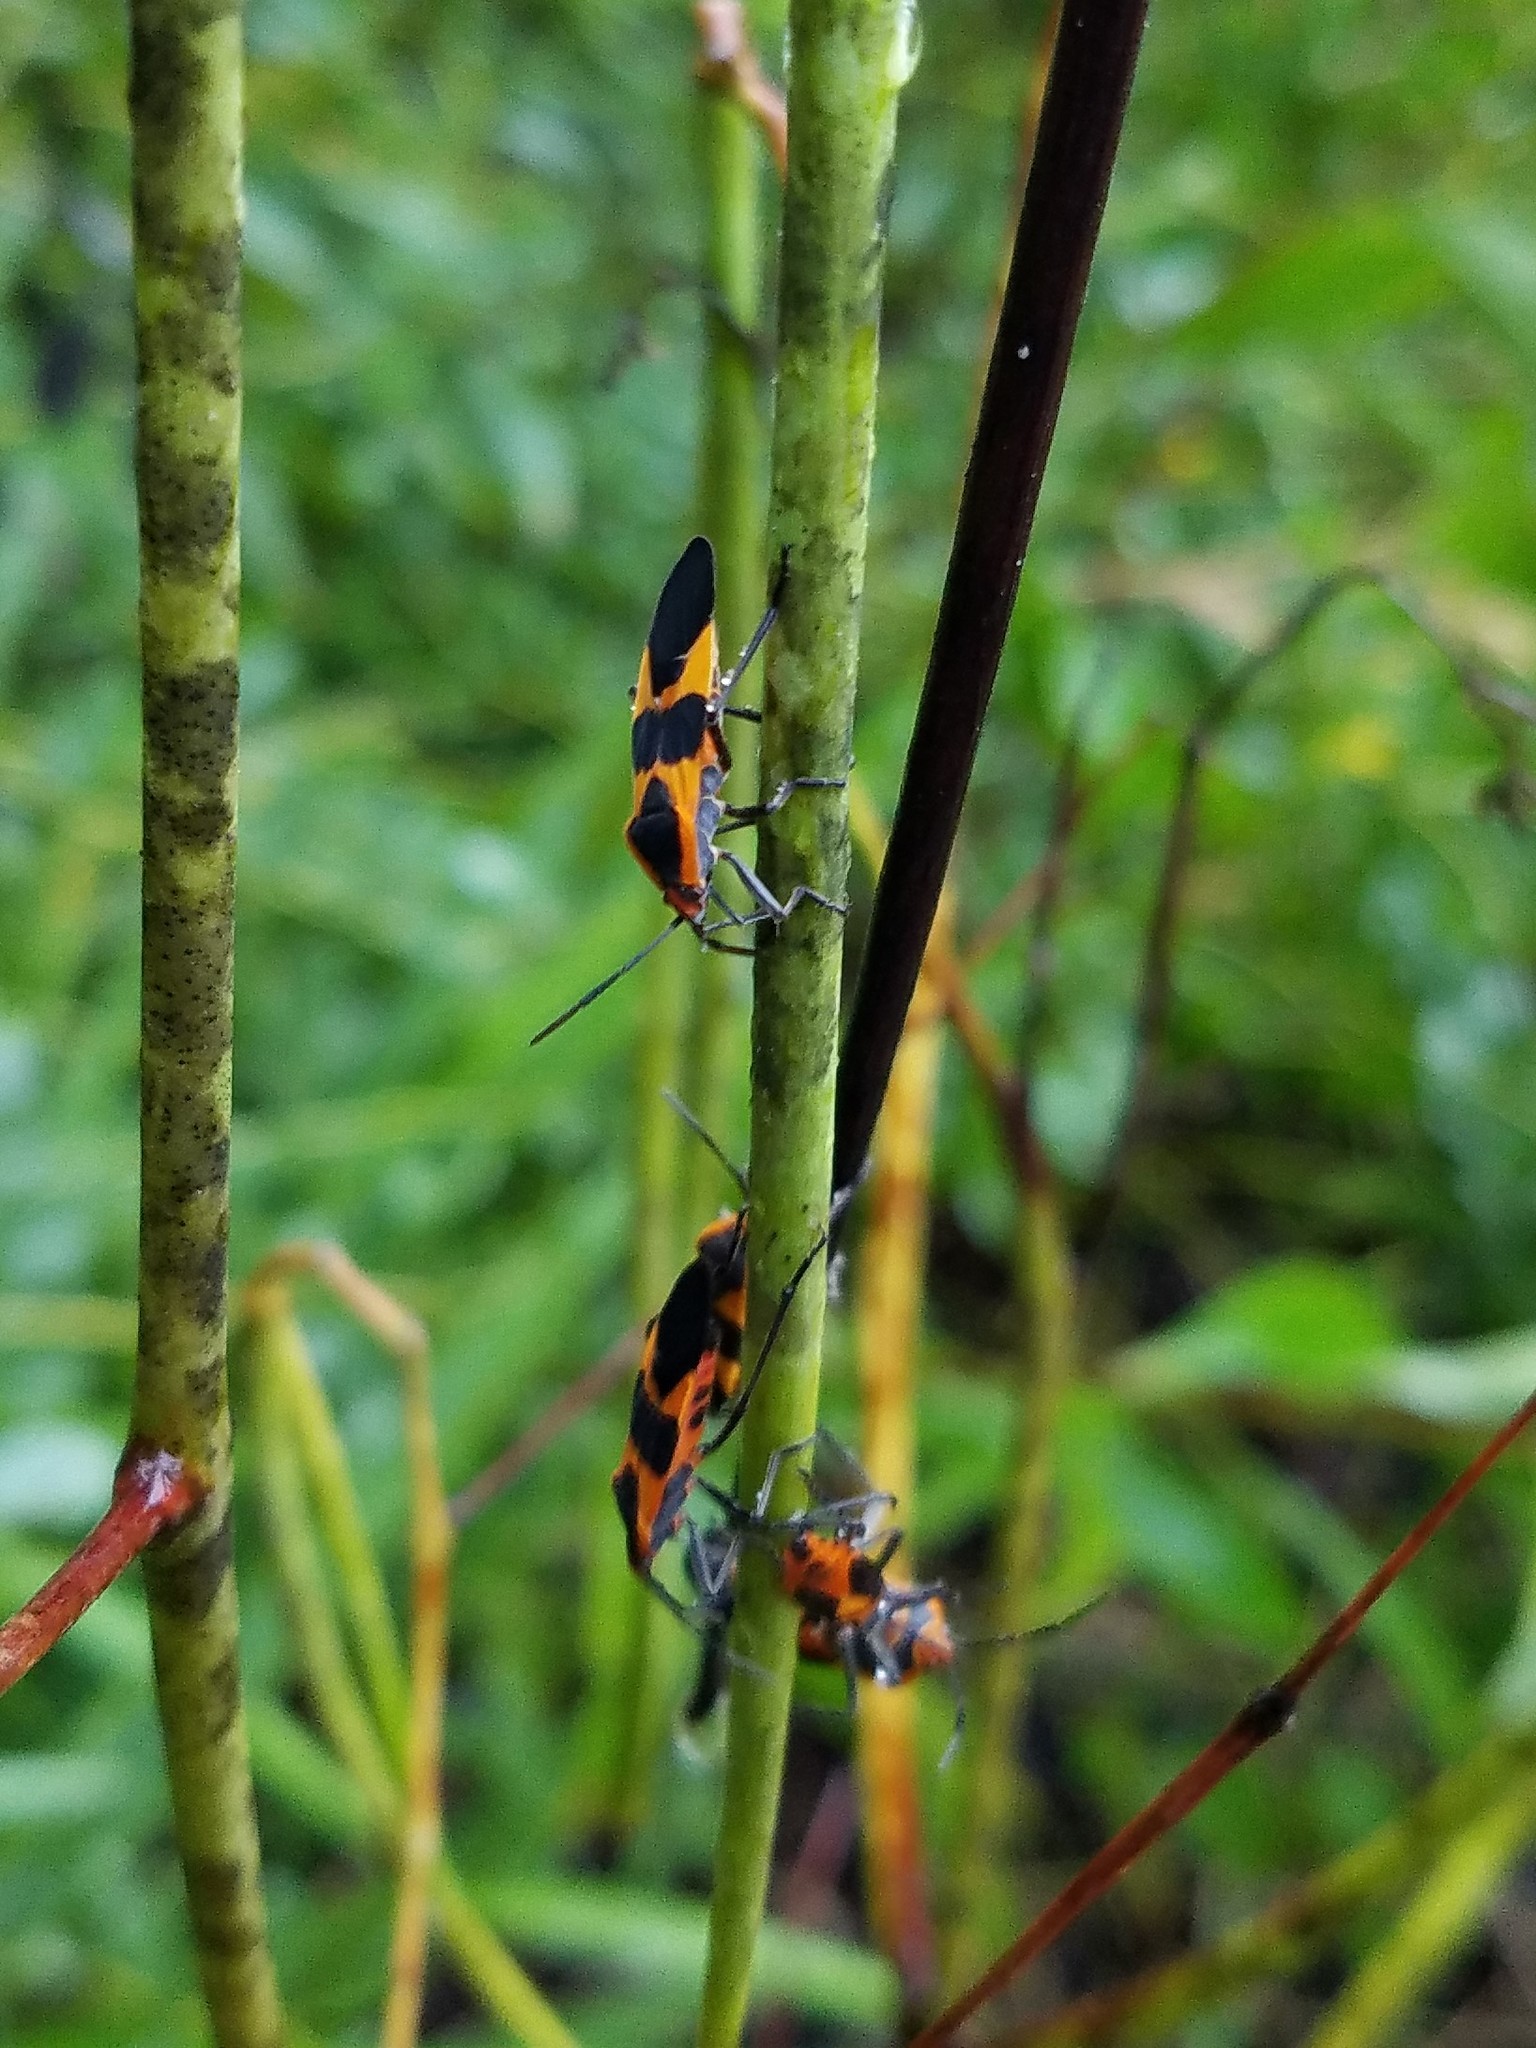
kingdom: Animalia
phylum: Arthropoda
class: Insecta
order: Hemiptera
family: Lygaeidae
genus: Oncopeltus
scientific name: Oncopeltus fasciatus
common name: Large milkweed bug
